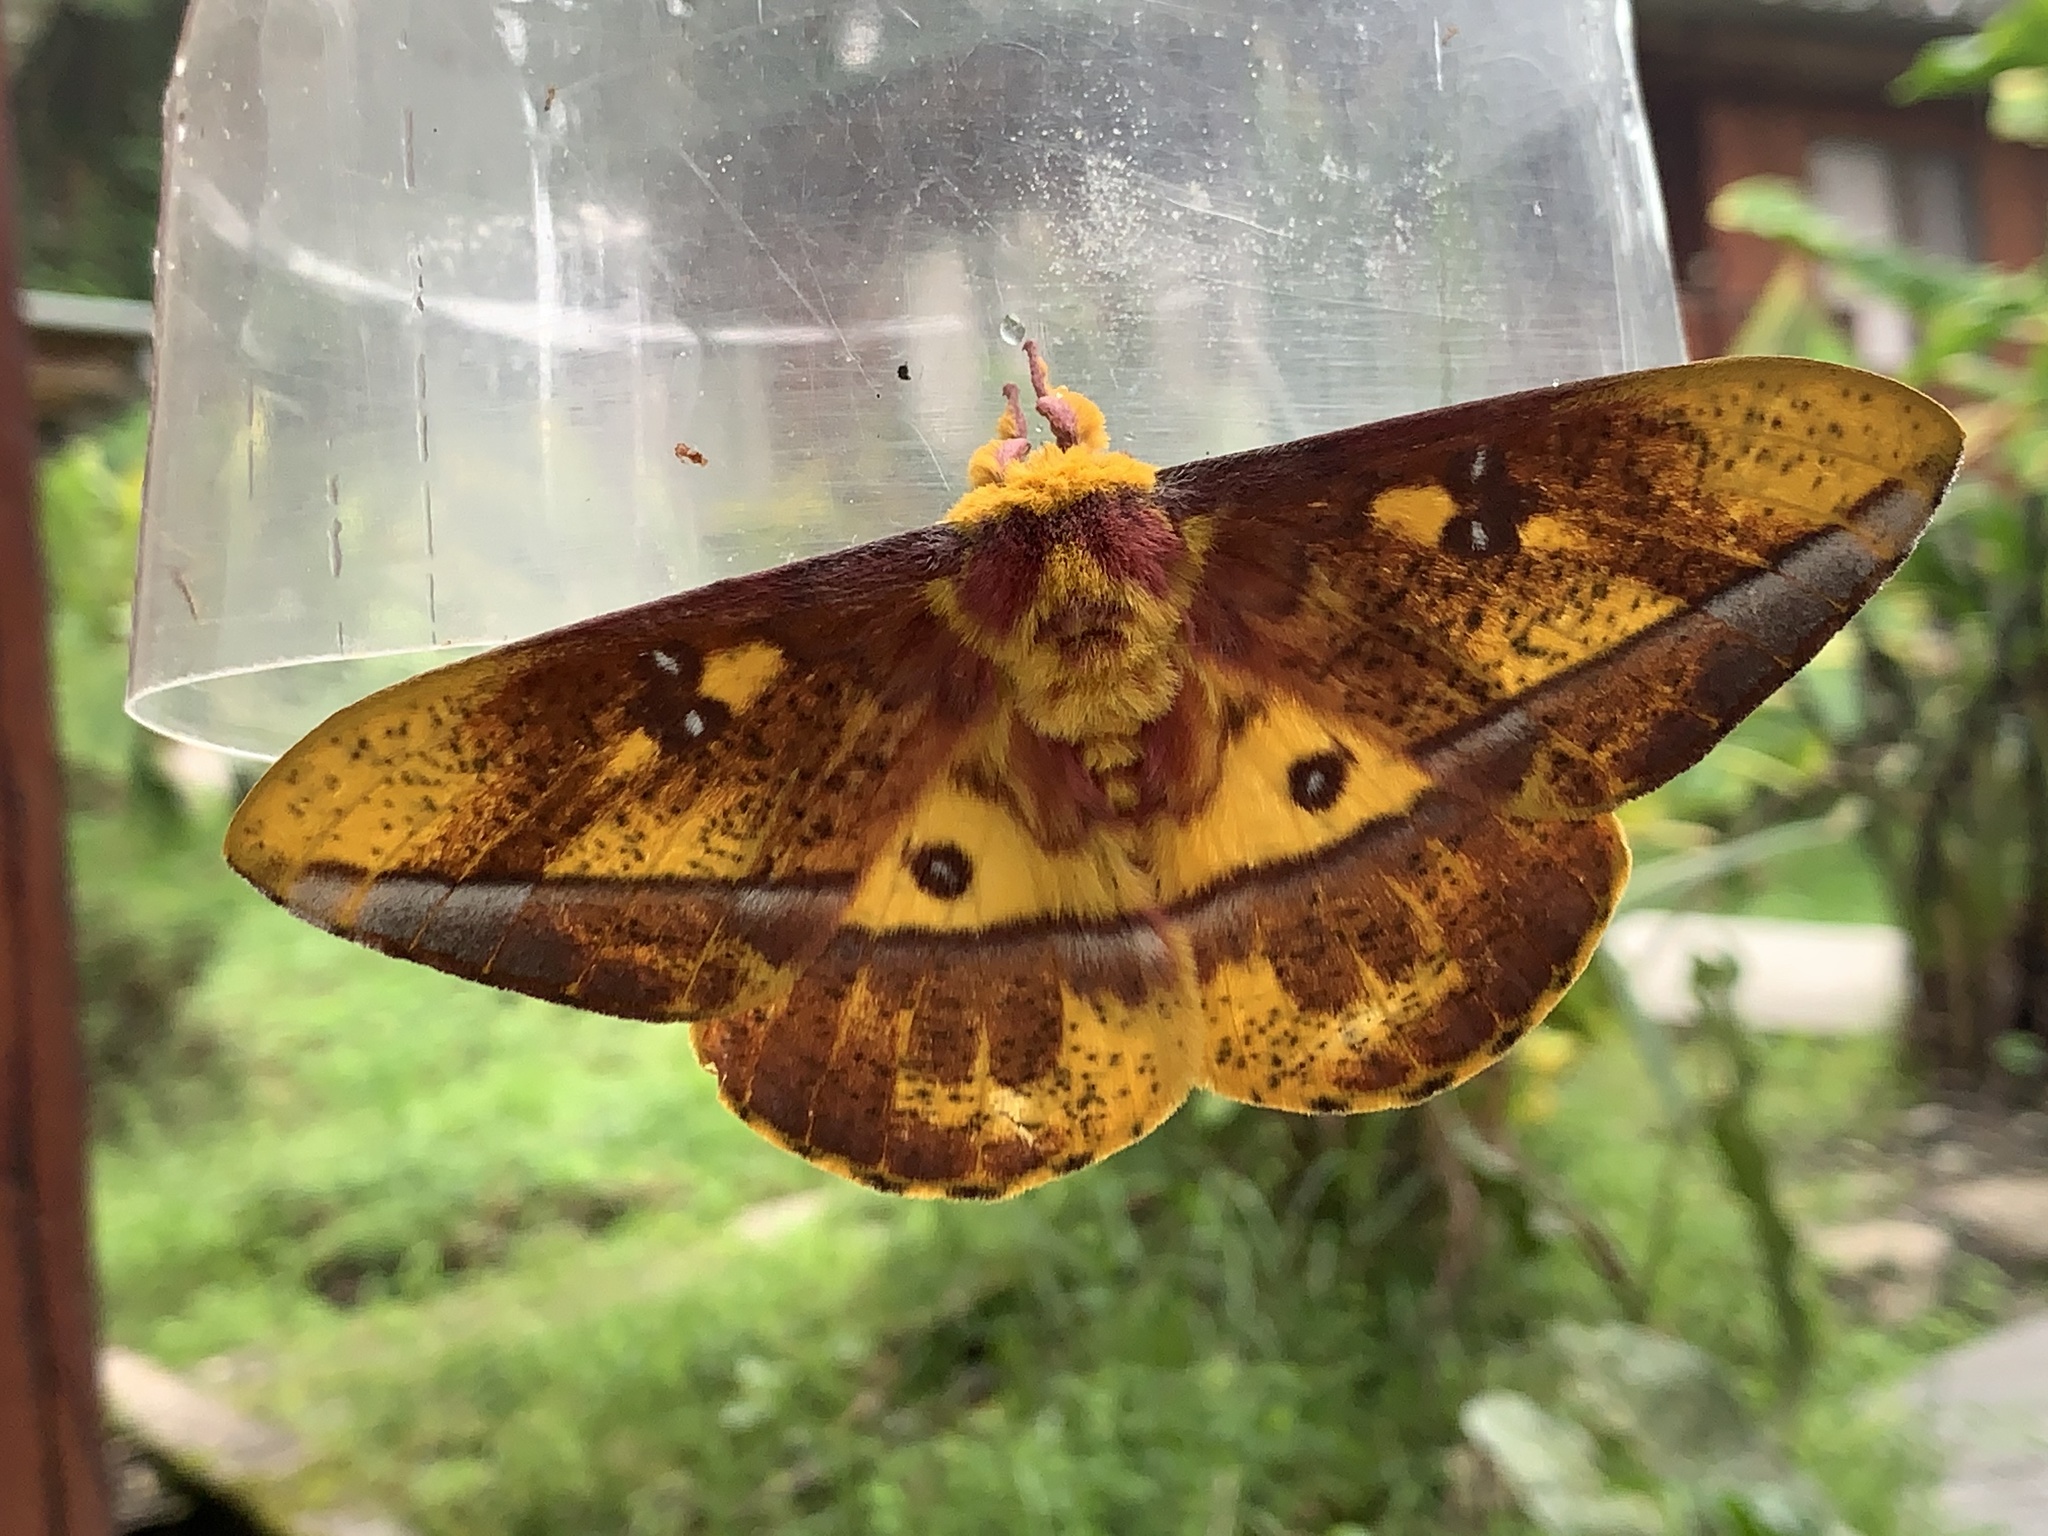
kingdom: Animalia
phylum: Arthropoda
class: Insecta
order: Lepidoptera
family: Saturniidae
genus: Bathyphlebia
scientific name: Bathyphlebia eminens
